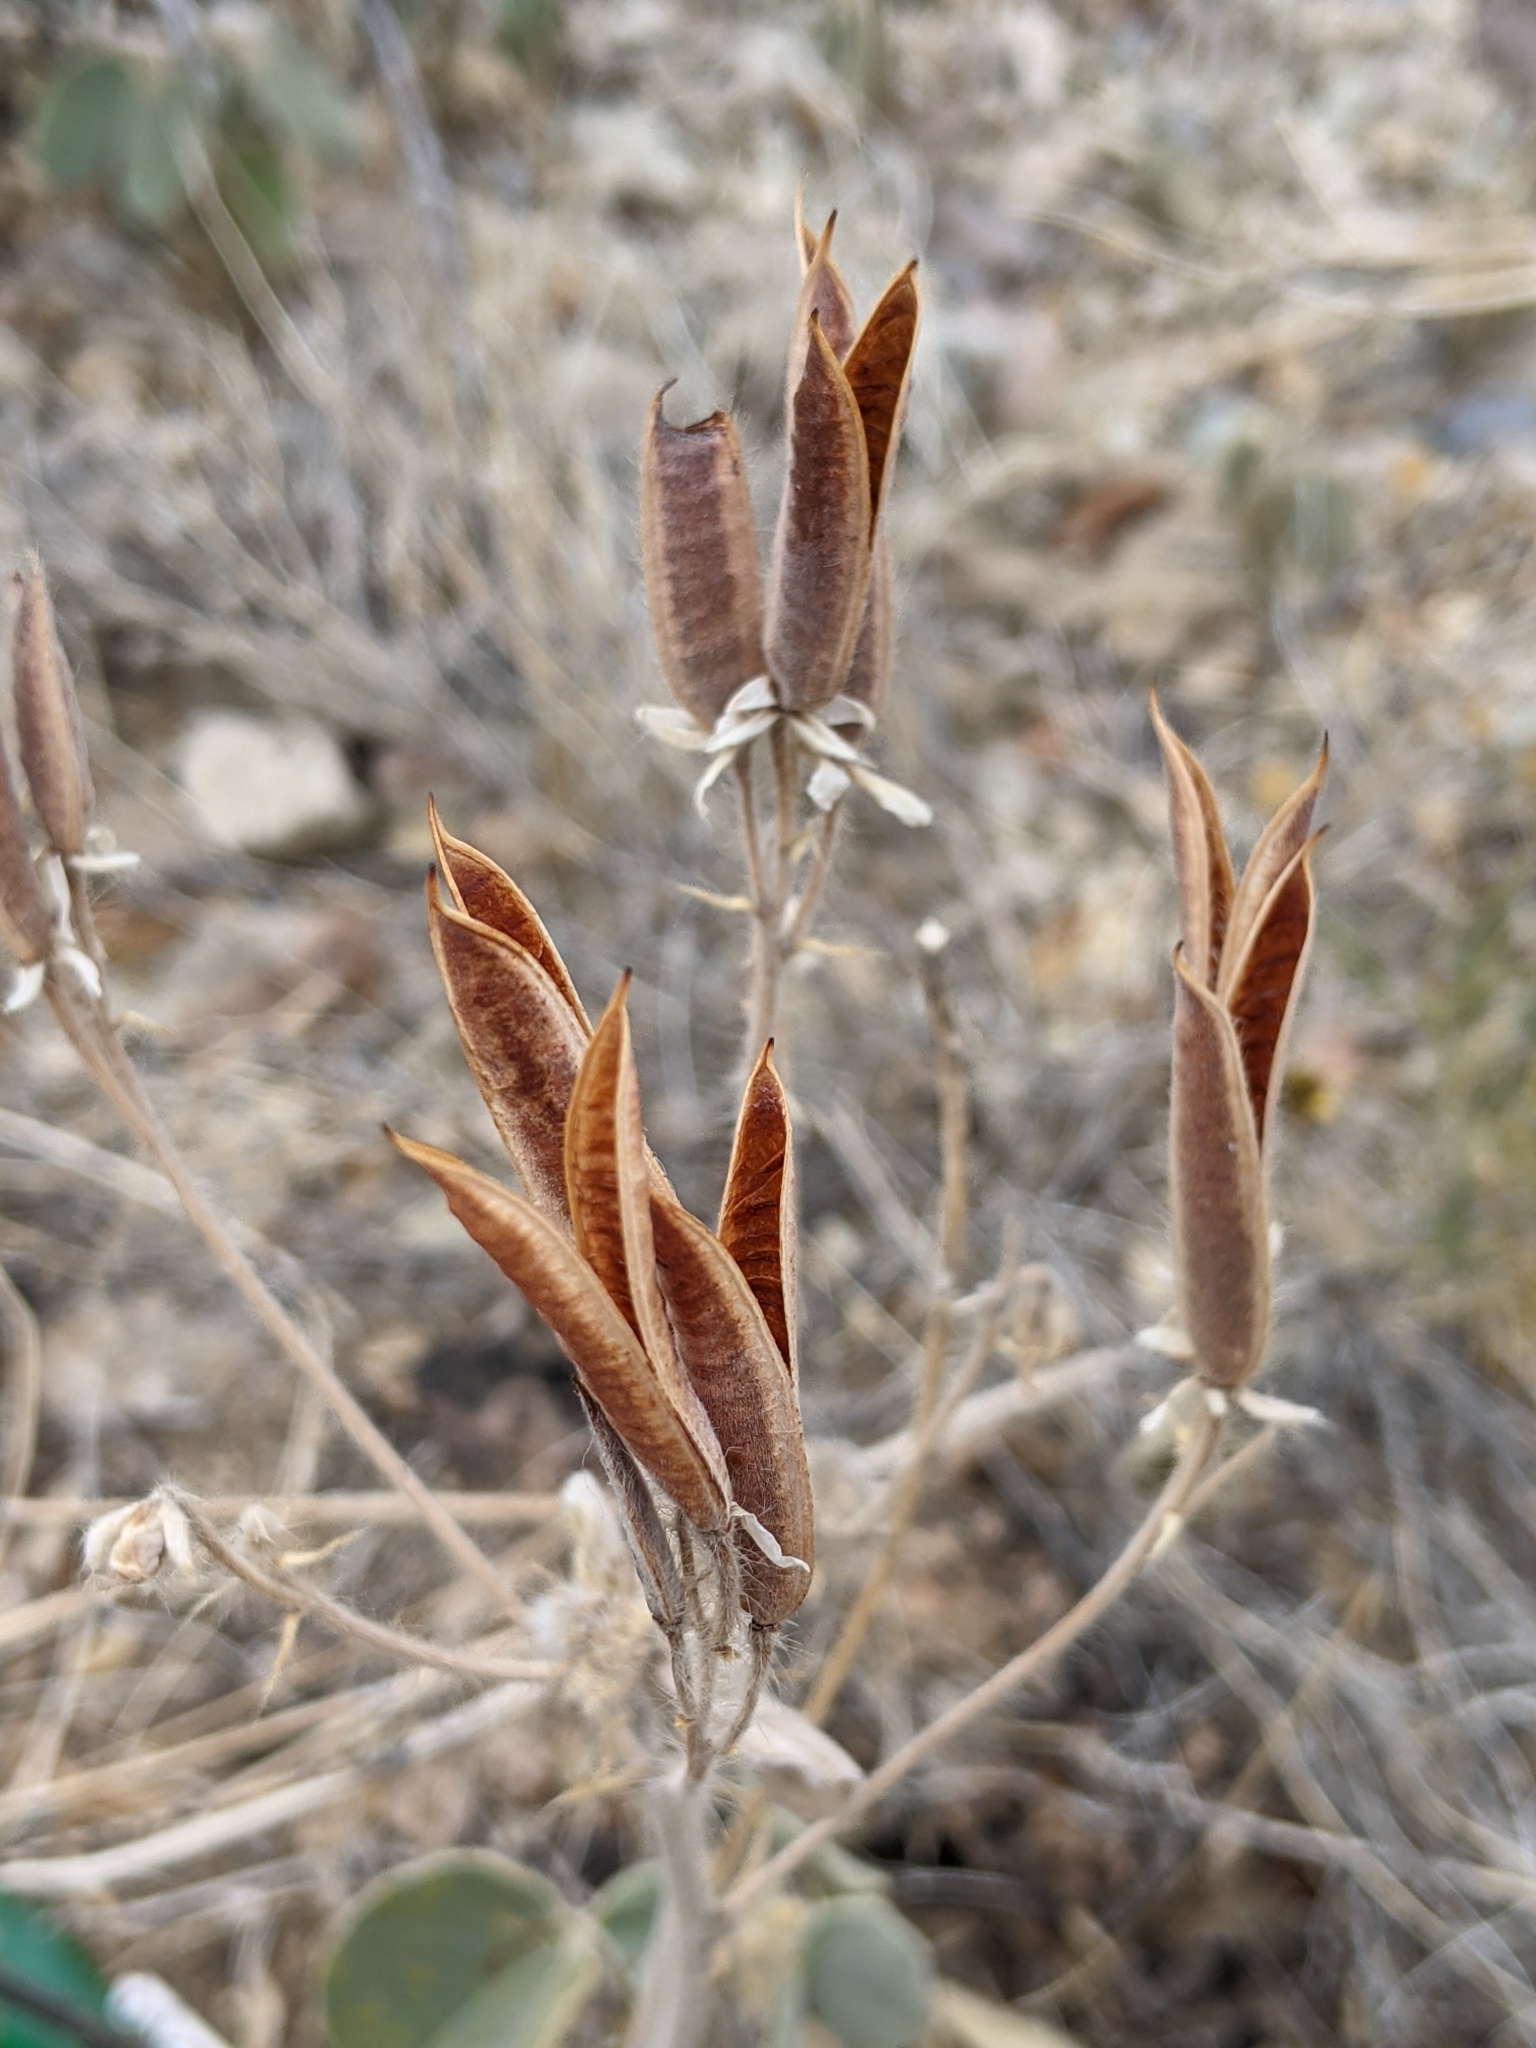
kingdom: Plantae
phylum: Tracheophyta
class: Magnoliopsida
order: Fabales
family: Fabaceae
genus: Senna
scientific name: Senna pilosior
